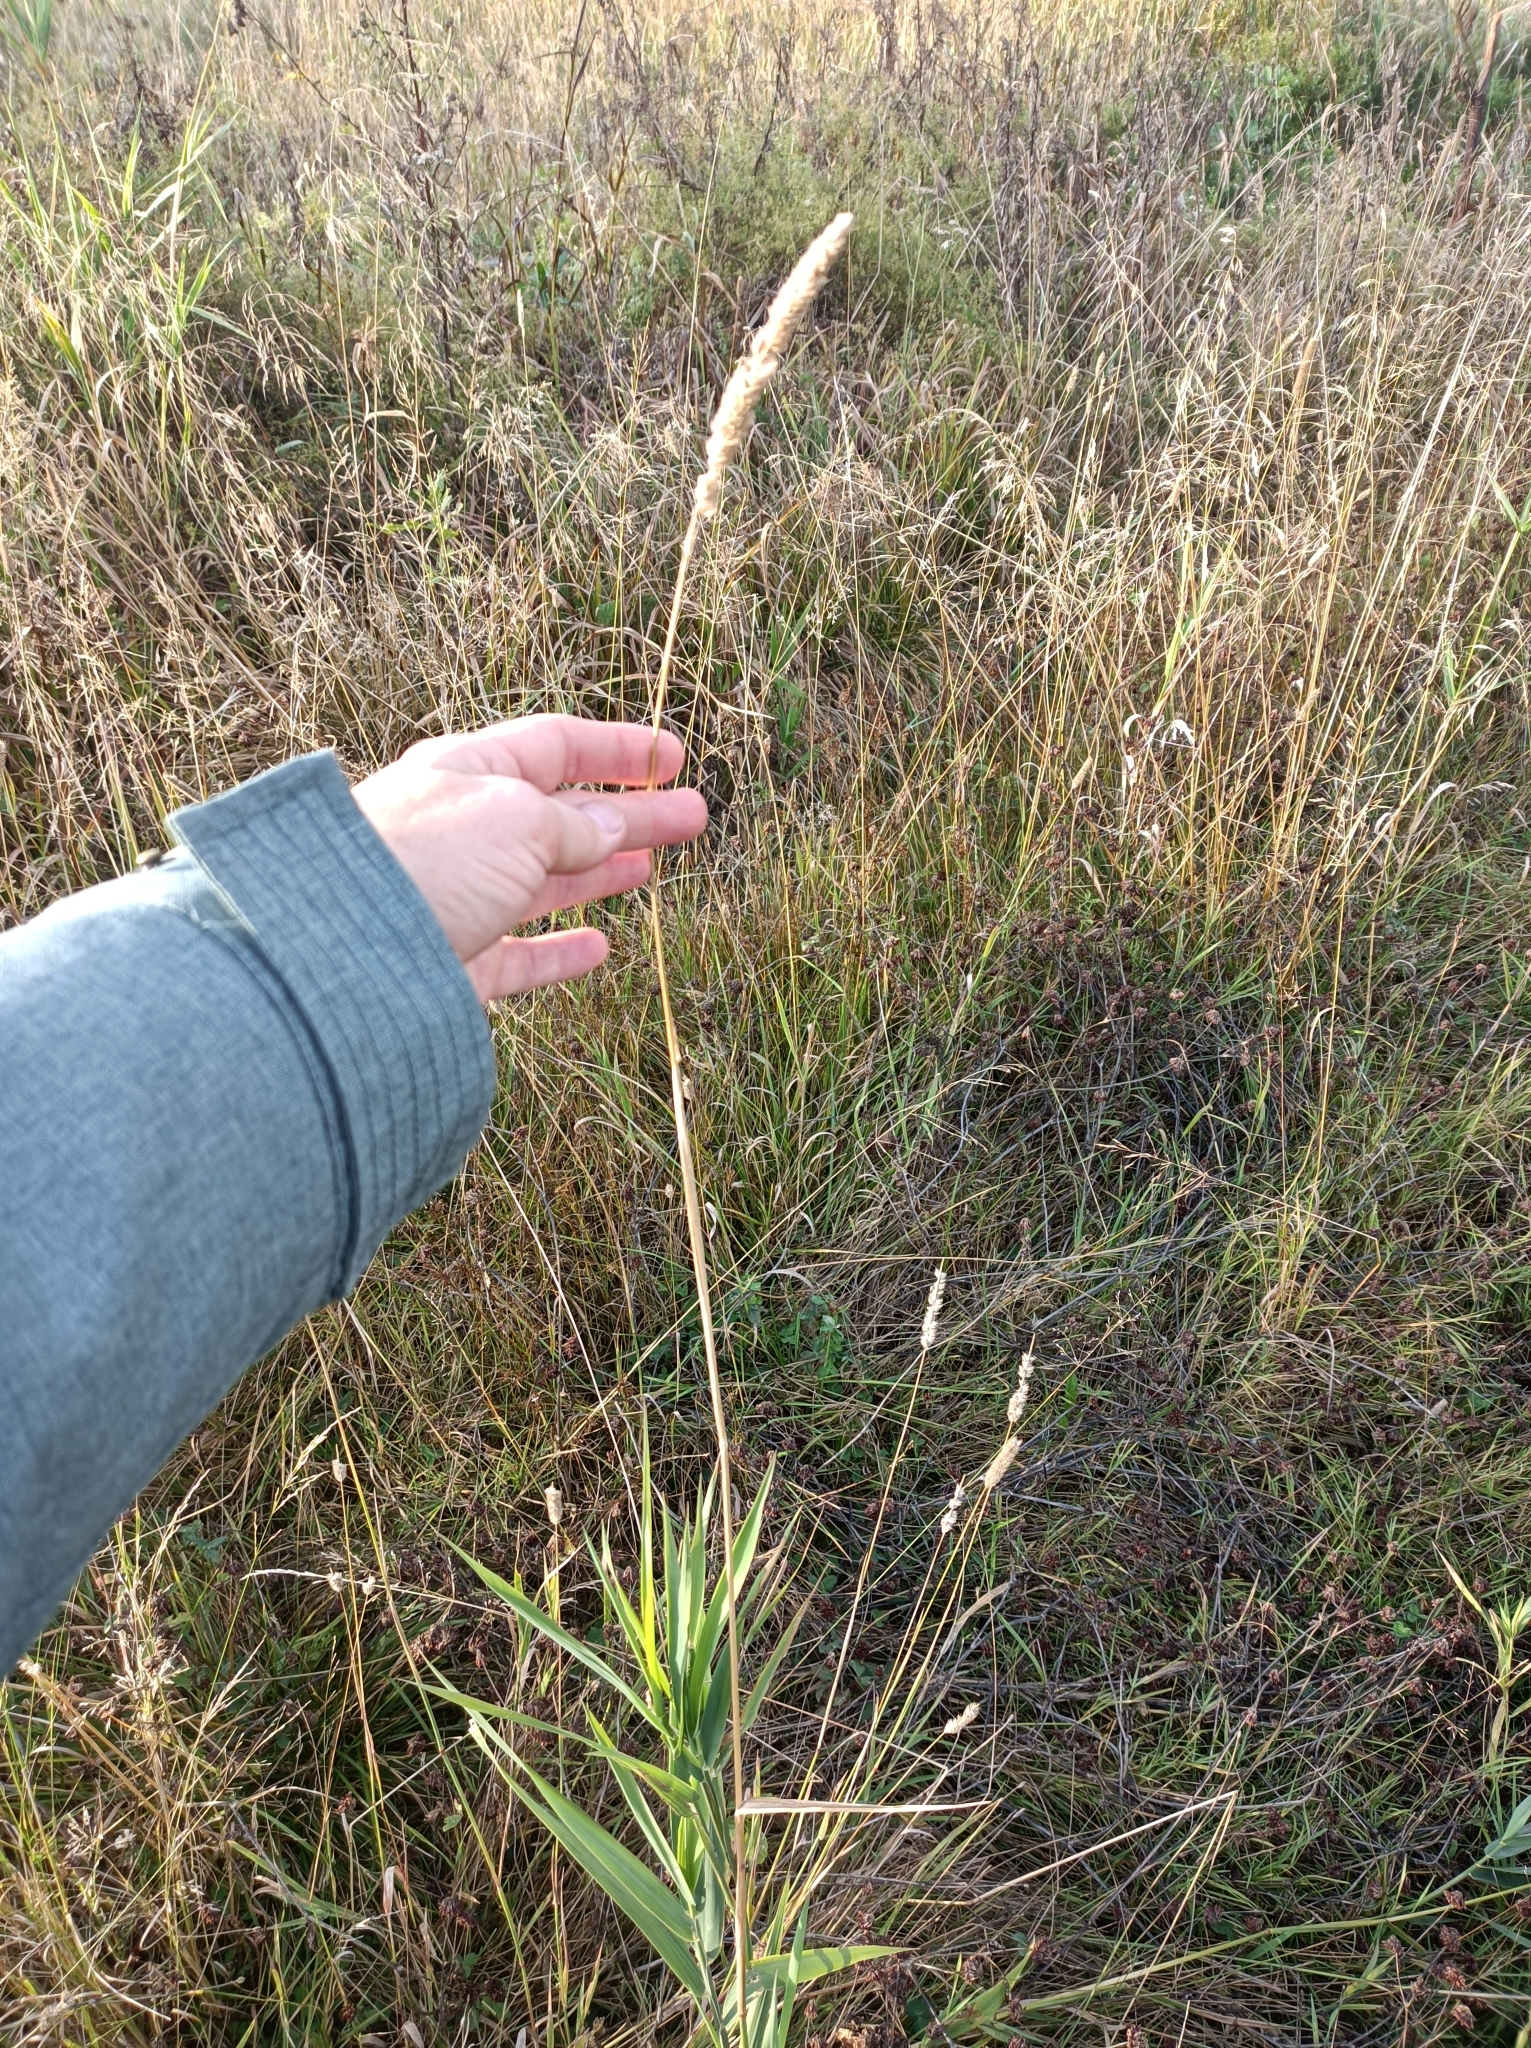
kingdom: Plantae
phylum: Tracheophyta
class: Liliopsida
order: Poales
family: Poaceae
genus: Phalaris
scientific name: Phalaris arundinacea
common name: Reed canary-grass
